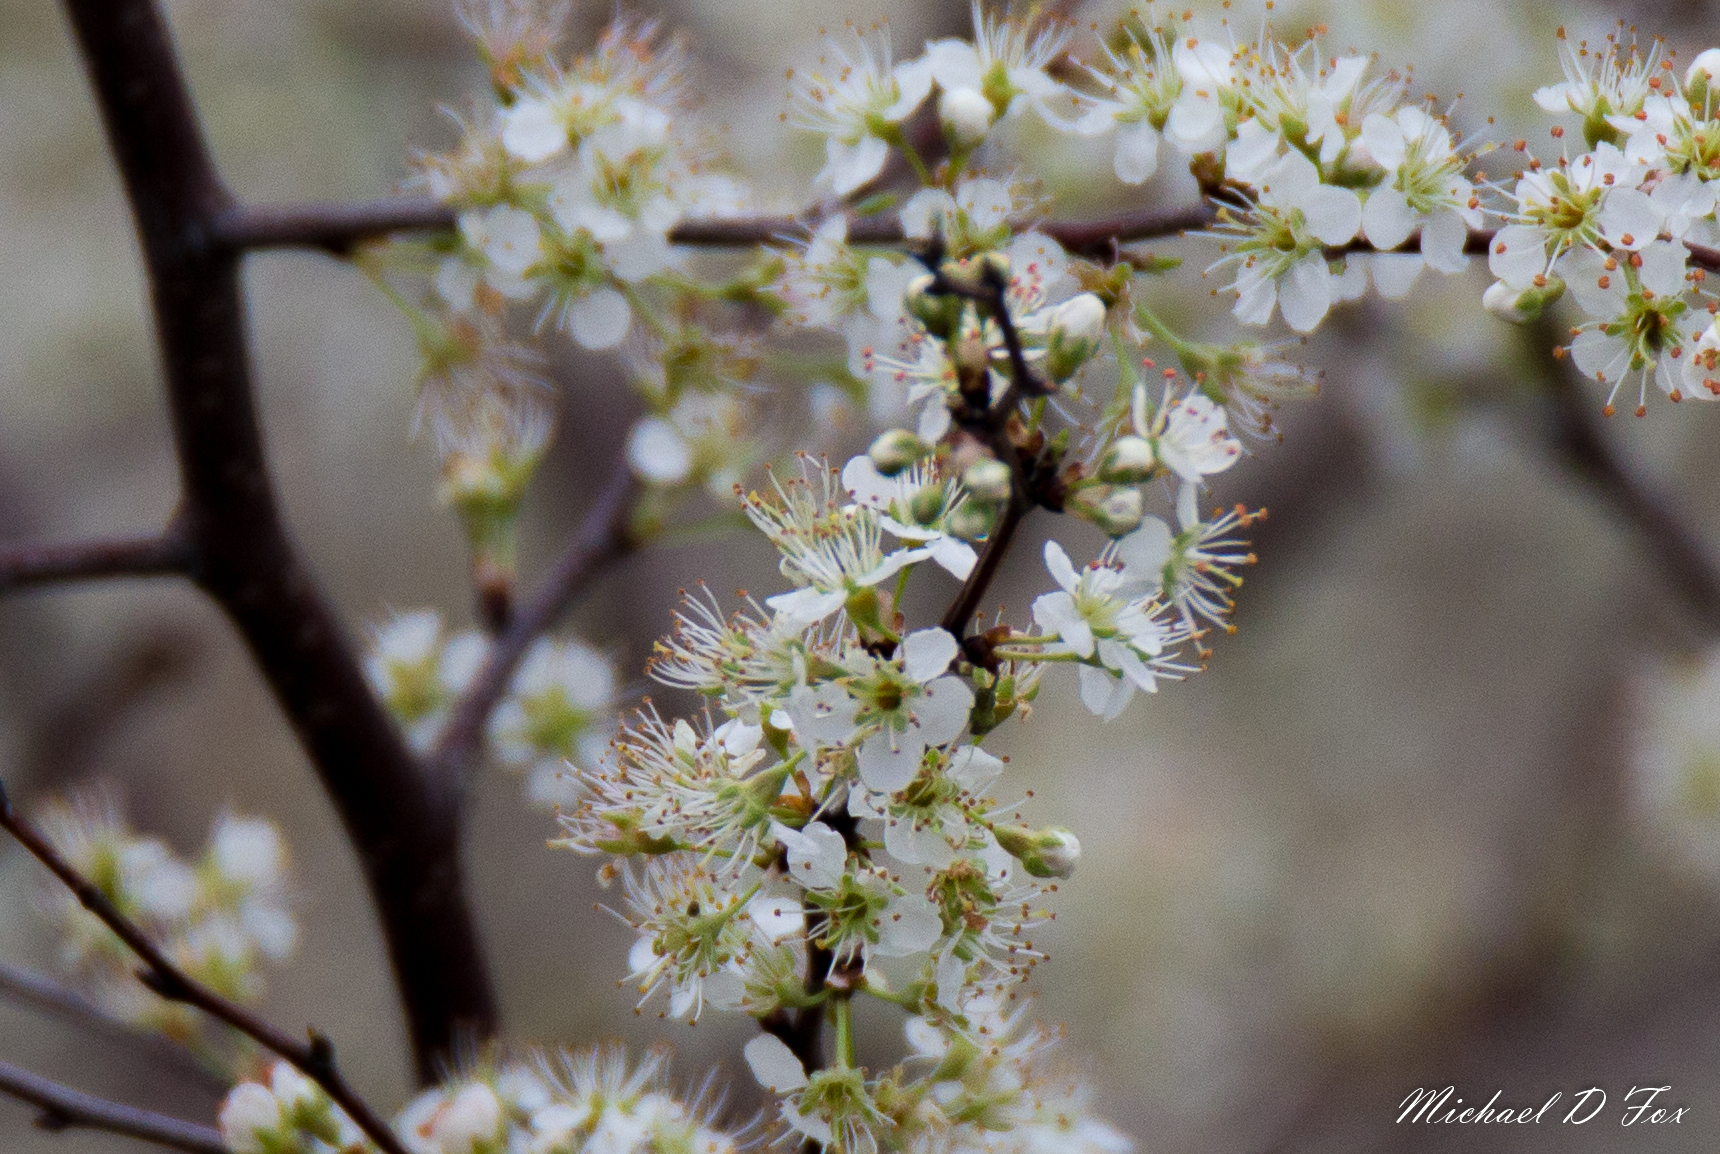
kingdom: Plantae
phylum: Tracheophyta
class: Magnoliopsida
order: Rosales
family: Rosaceae
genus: Prunus
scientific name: Prunus mexicana
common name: Mexican plum
